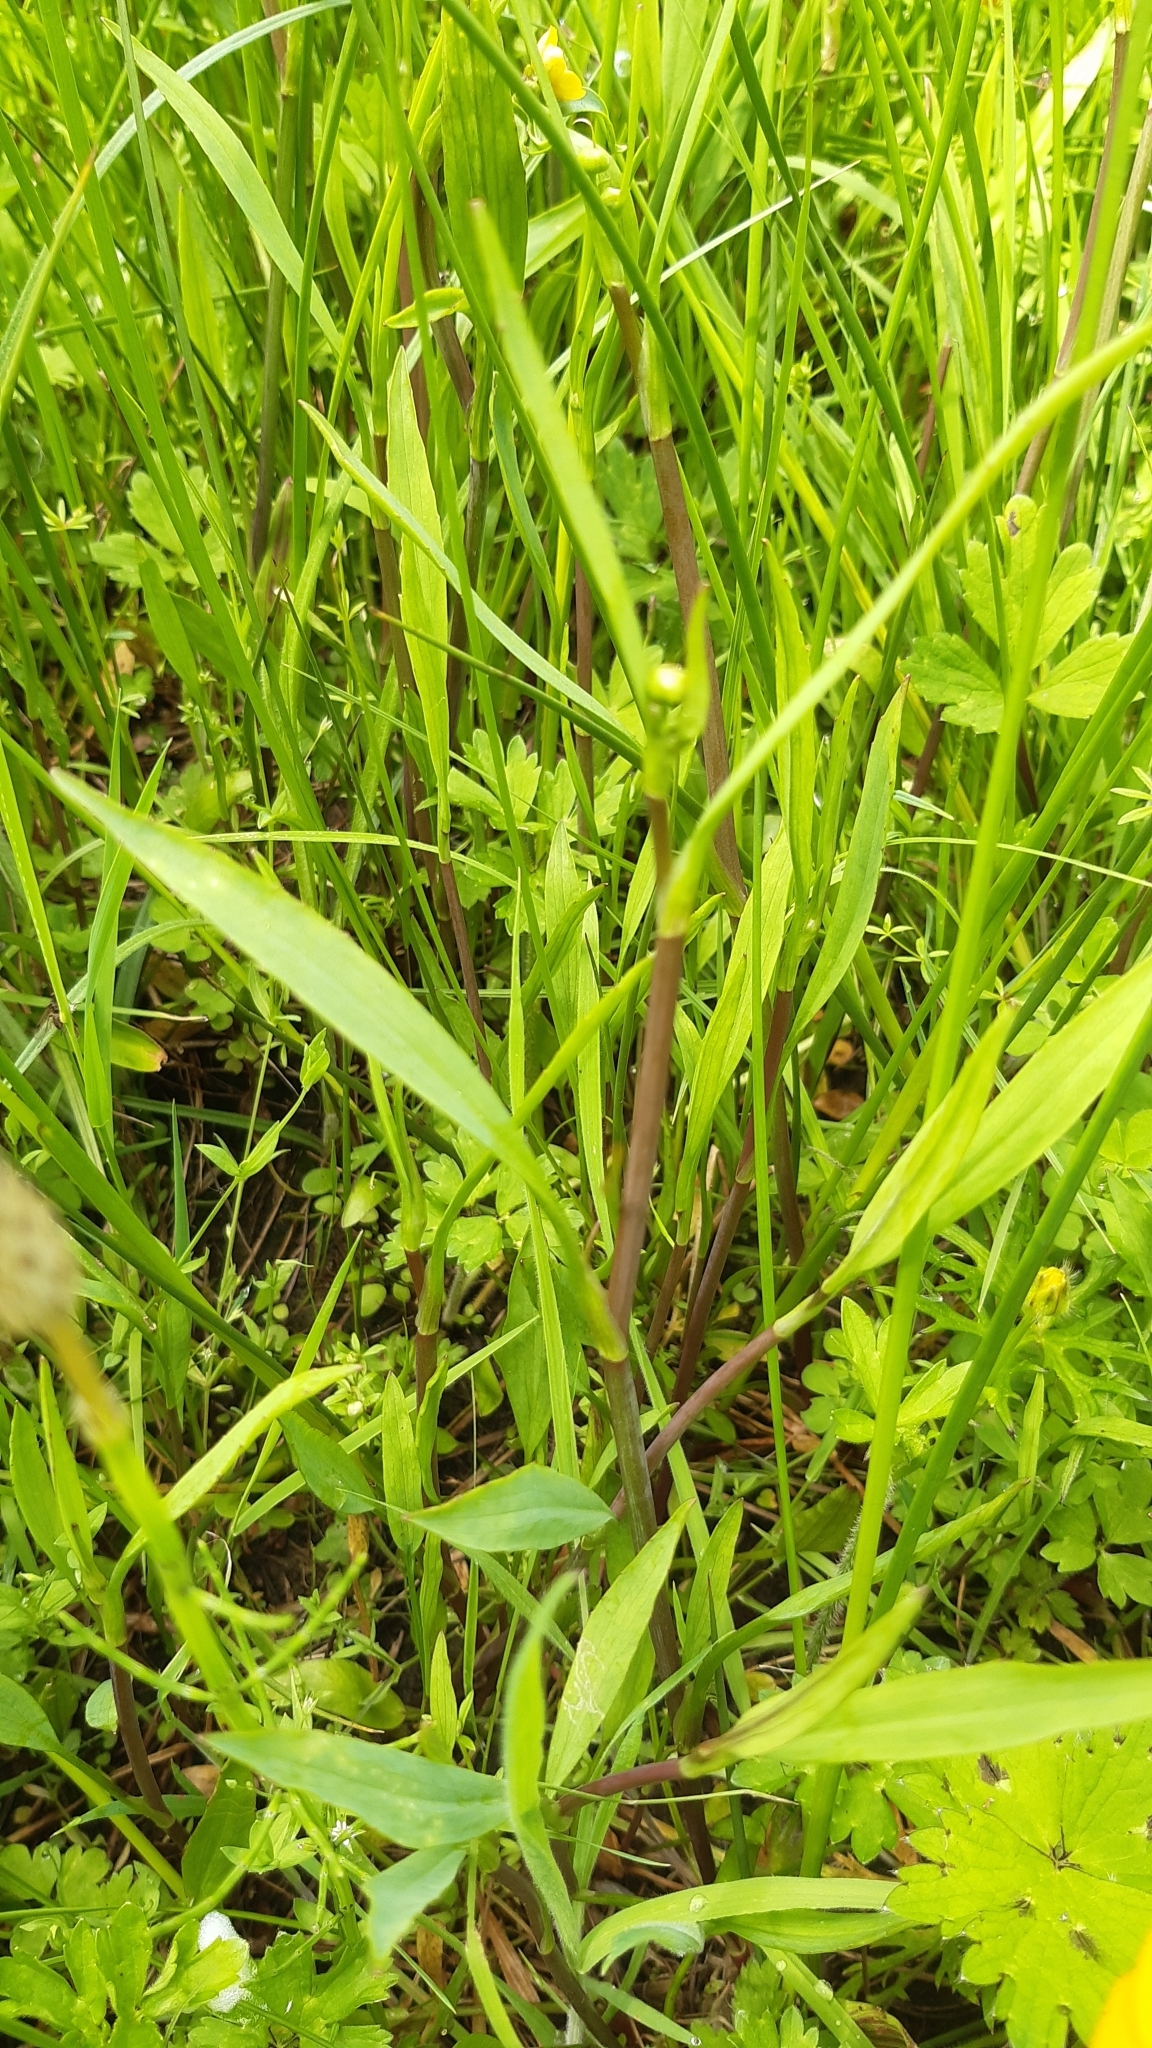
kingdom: Plantae
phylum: Tracheophyta
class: Magnoliopsida
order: Ranunculales
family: Ranunculaceae
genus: Ranunculus
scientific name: Ranunculus flammula
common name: Lesser spearwort
